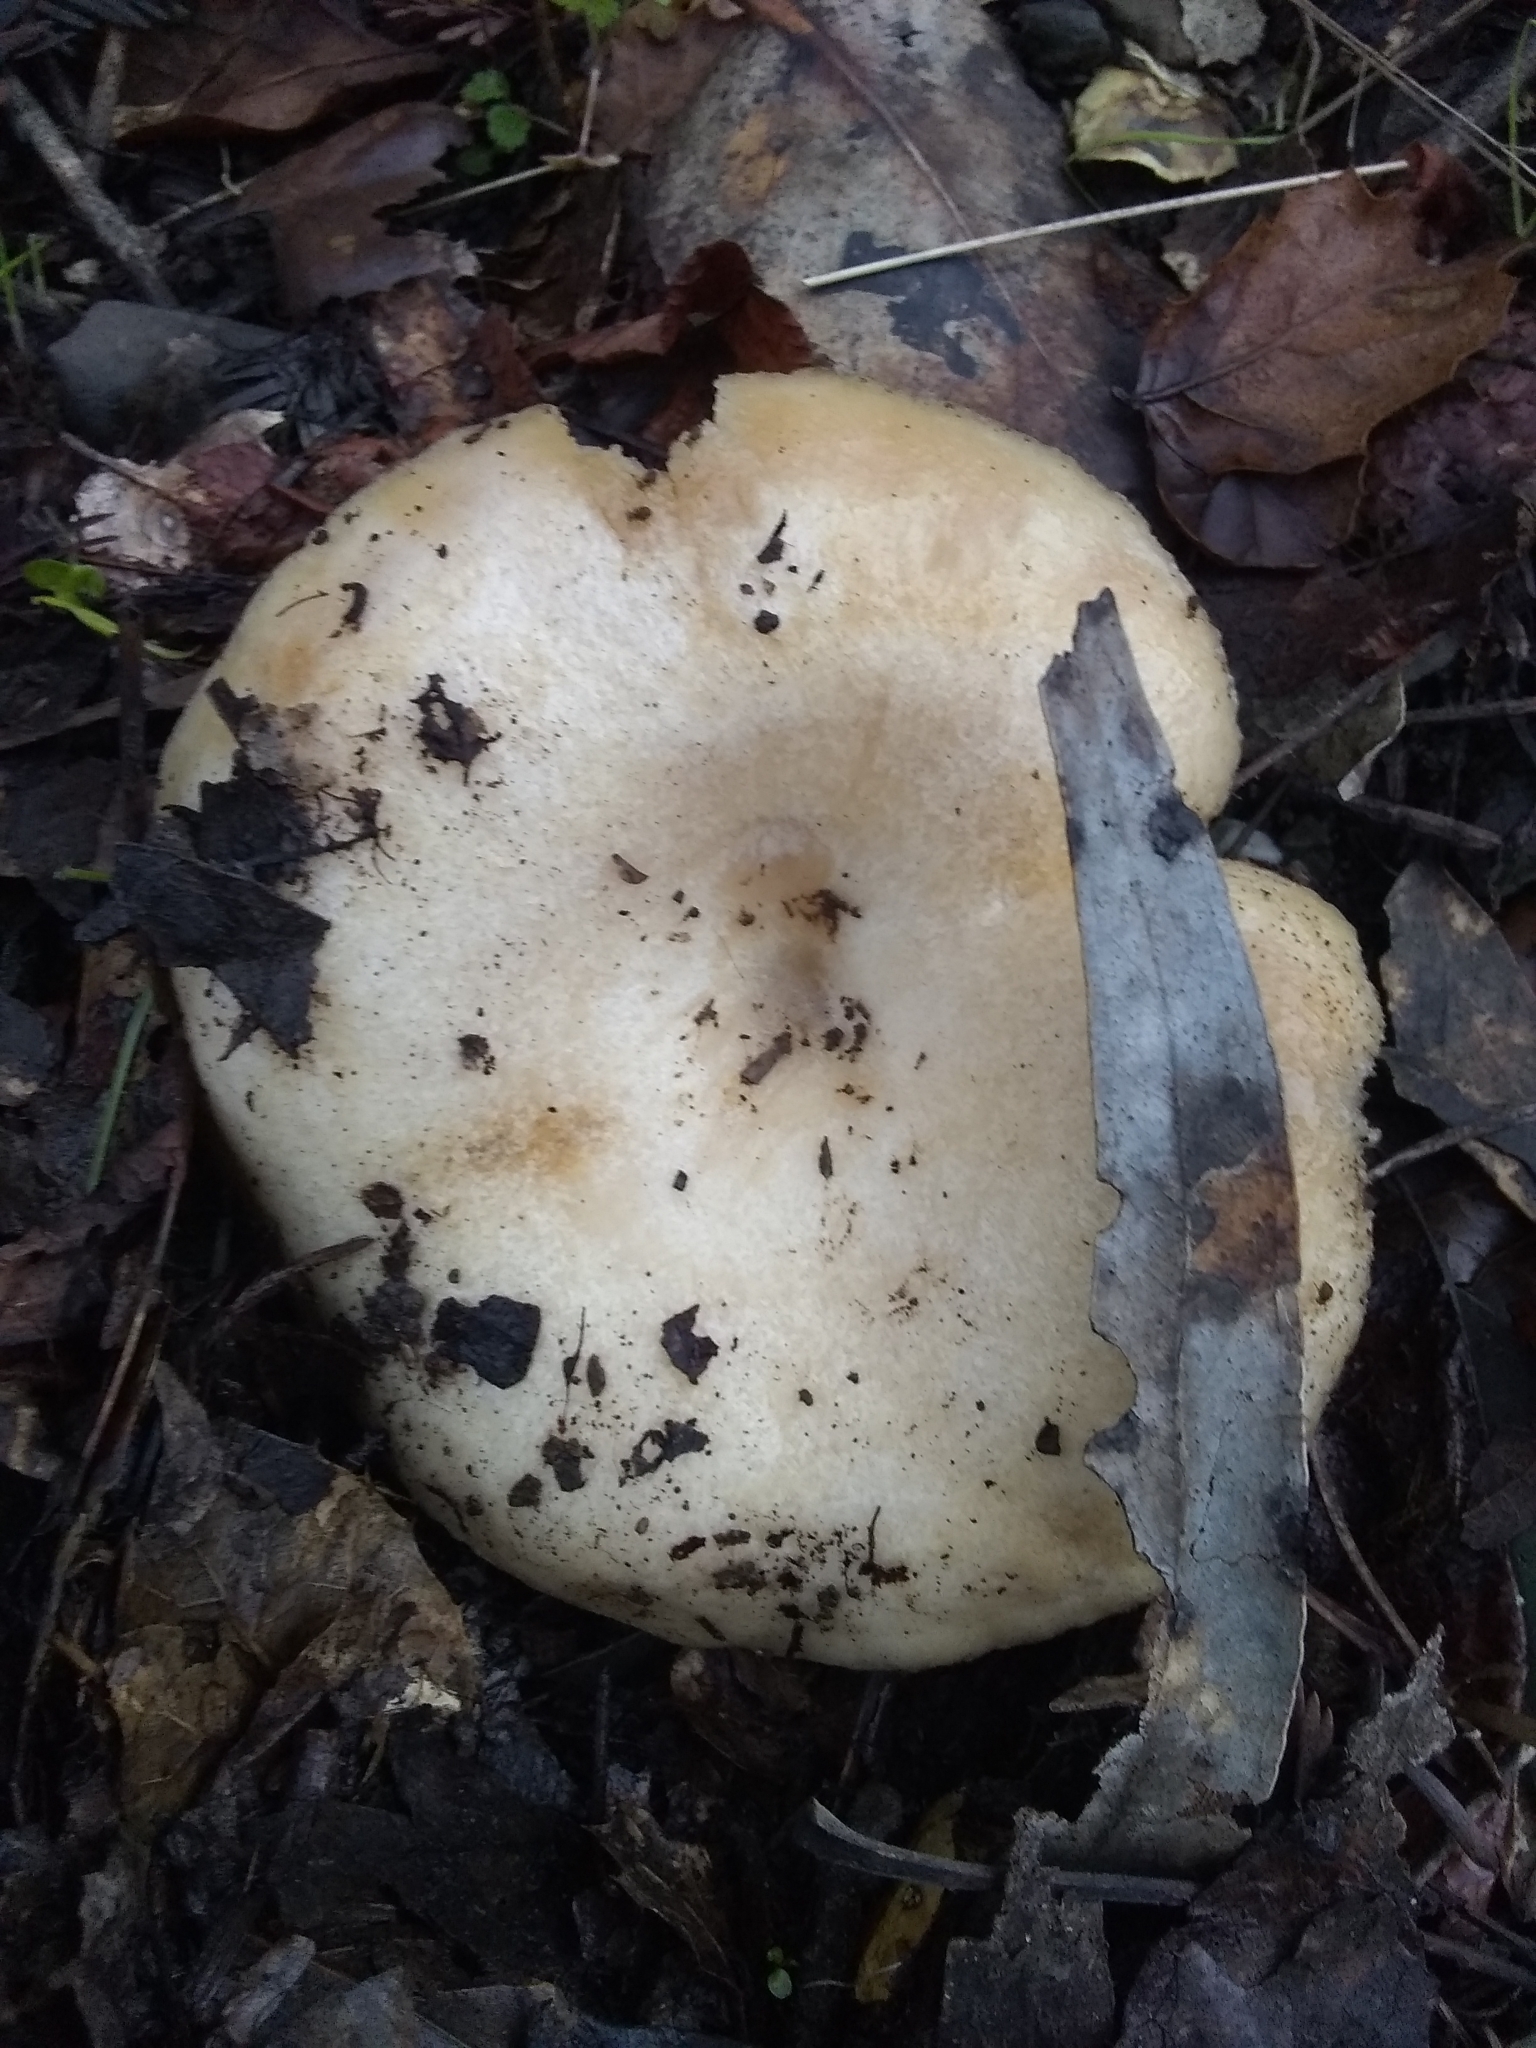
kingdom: Fungi
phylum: Basidiomycota
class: Agaricomycetes
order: Russulales
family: Russulaceae
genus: Lactarius
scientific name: Lactarius alnicola
